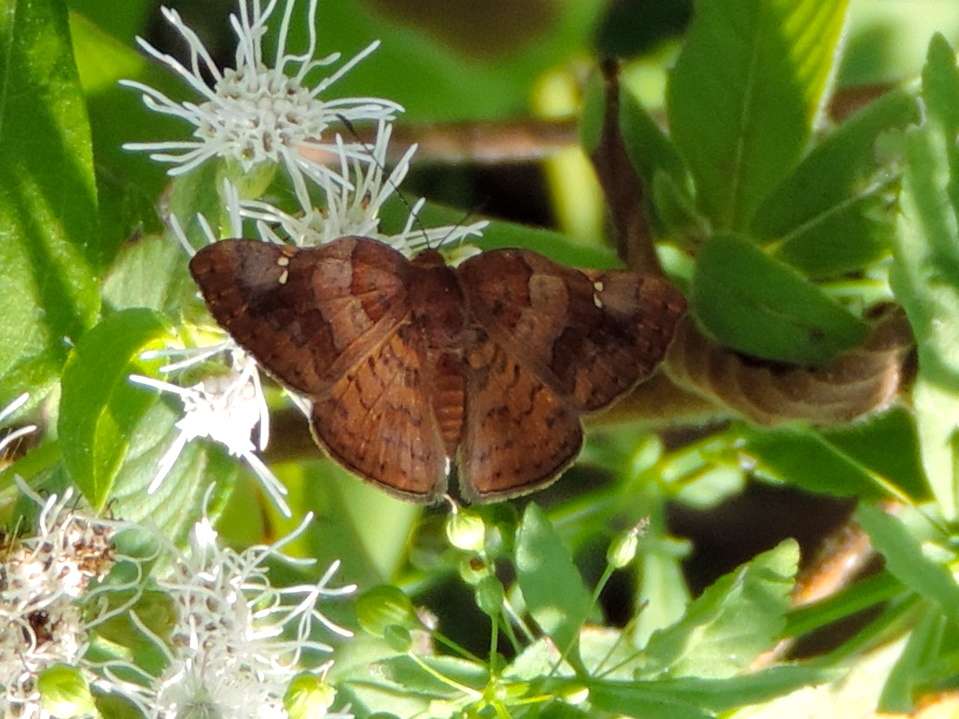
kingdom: Animalia
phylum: Arthropoda
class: Insecta
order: Lepidoptera
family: Riodinidae
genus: Curvie
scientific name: Curvie emesia
